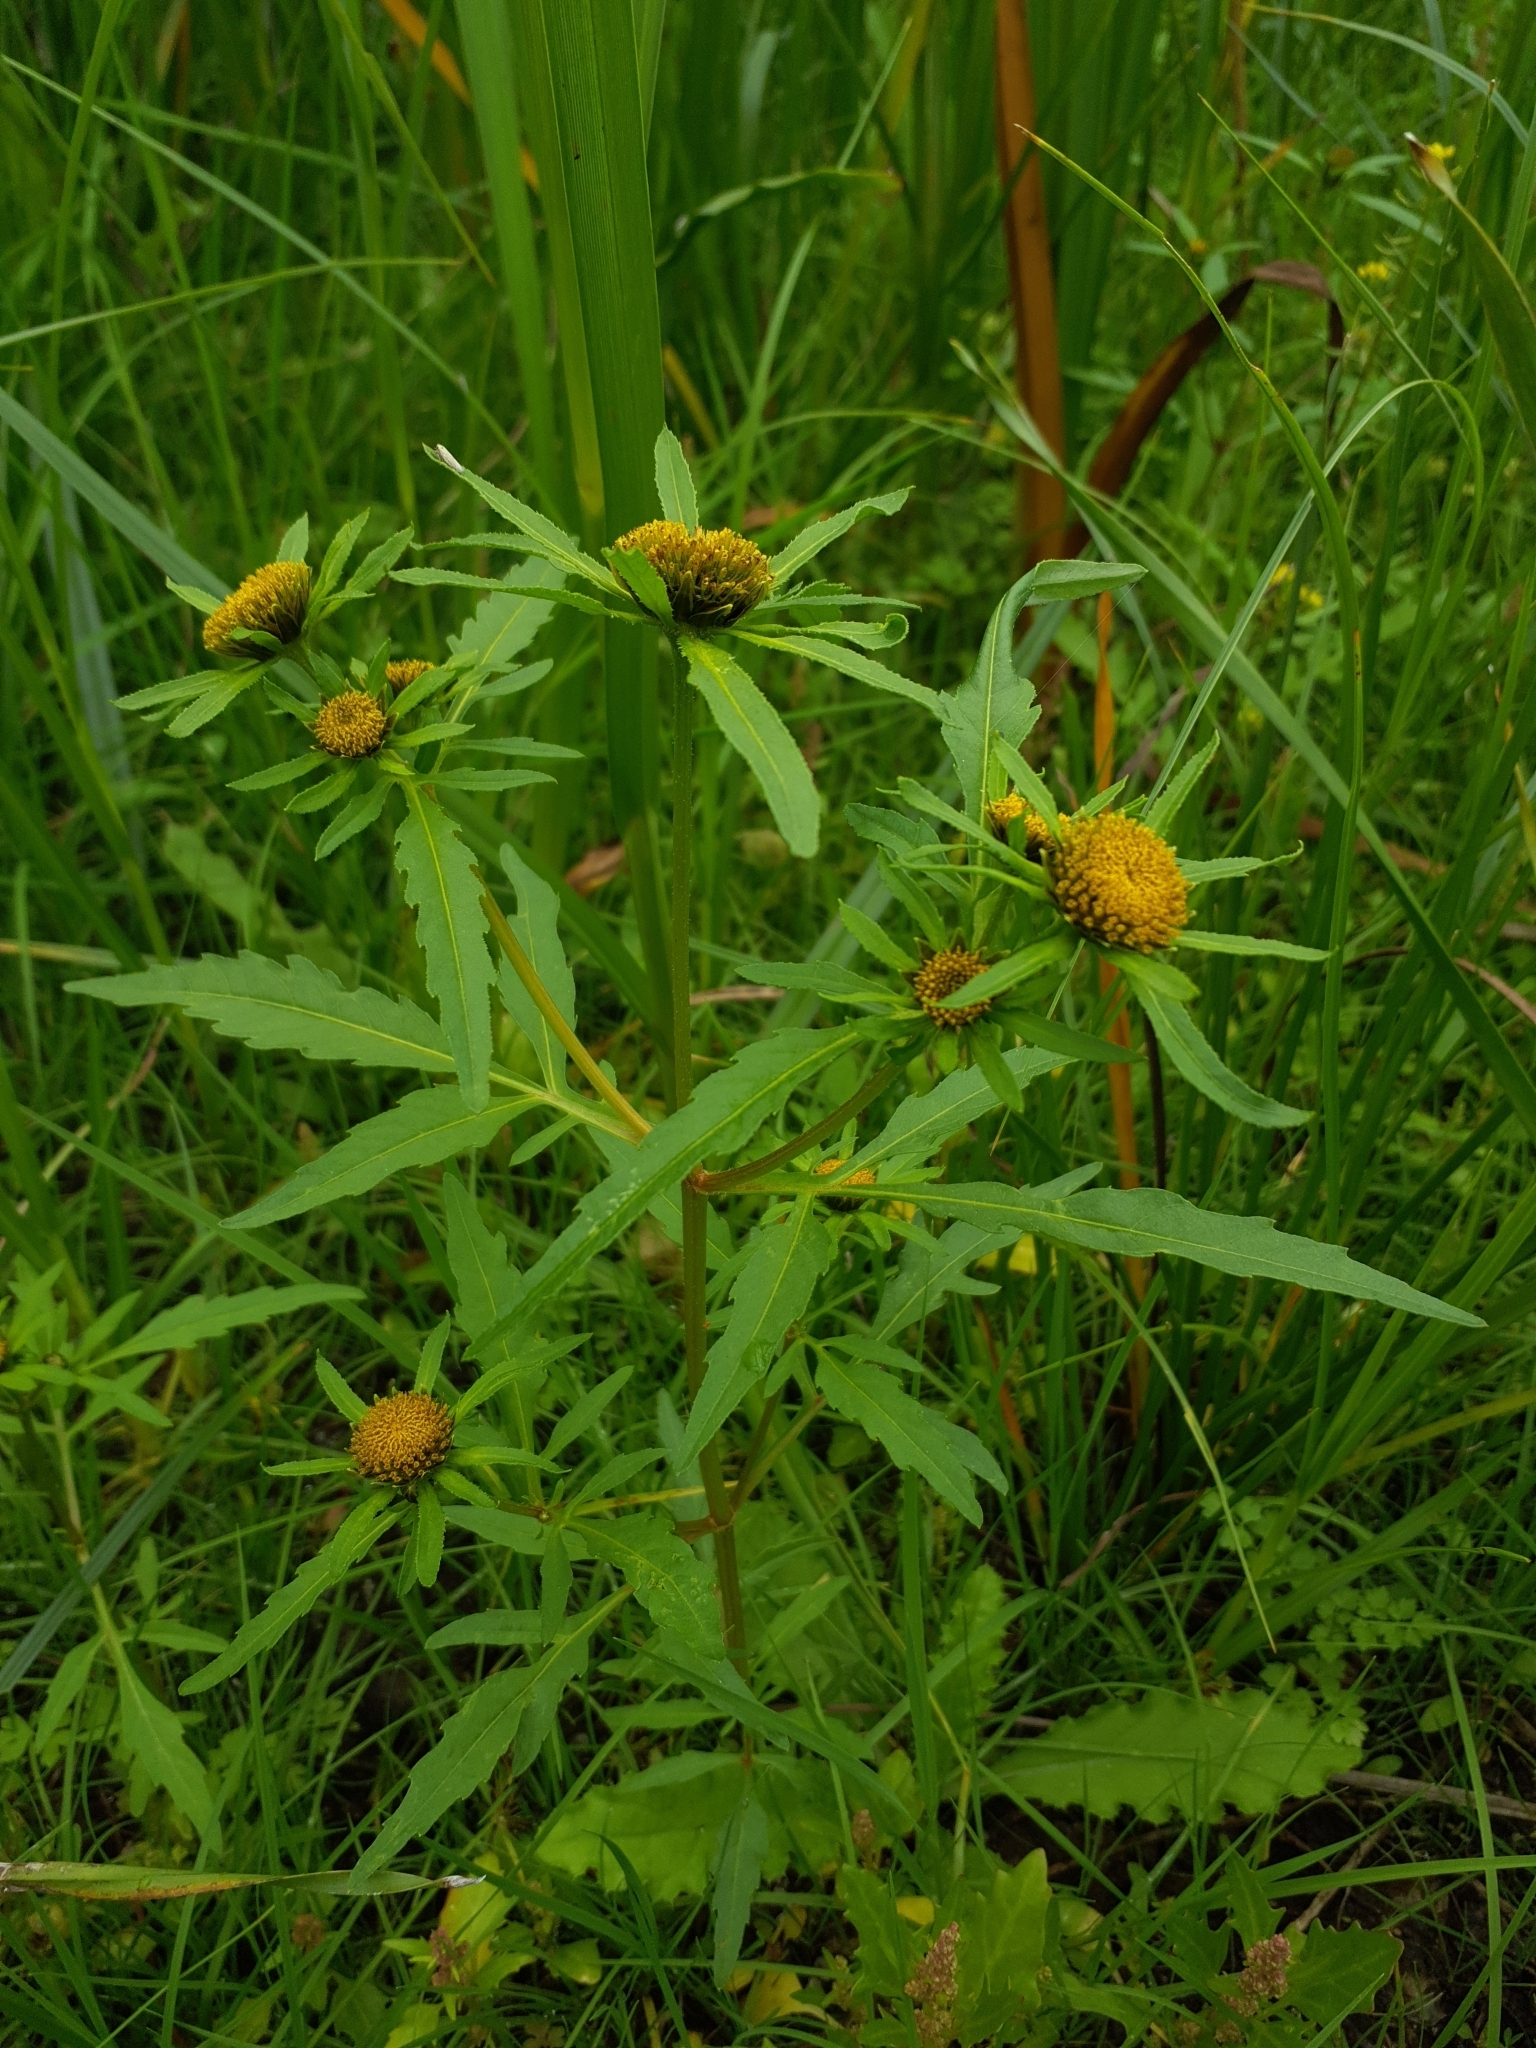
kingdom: Plantae
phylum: Tracheophyta
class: Magnoliopsida
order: Asterales
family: Asteraceae
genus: Bidens
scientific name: Bidens radiata
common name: Radiating bur-marigold
